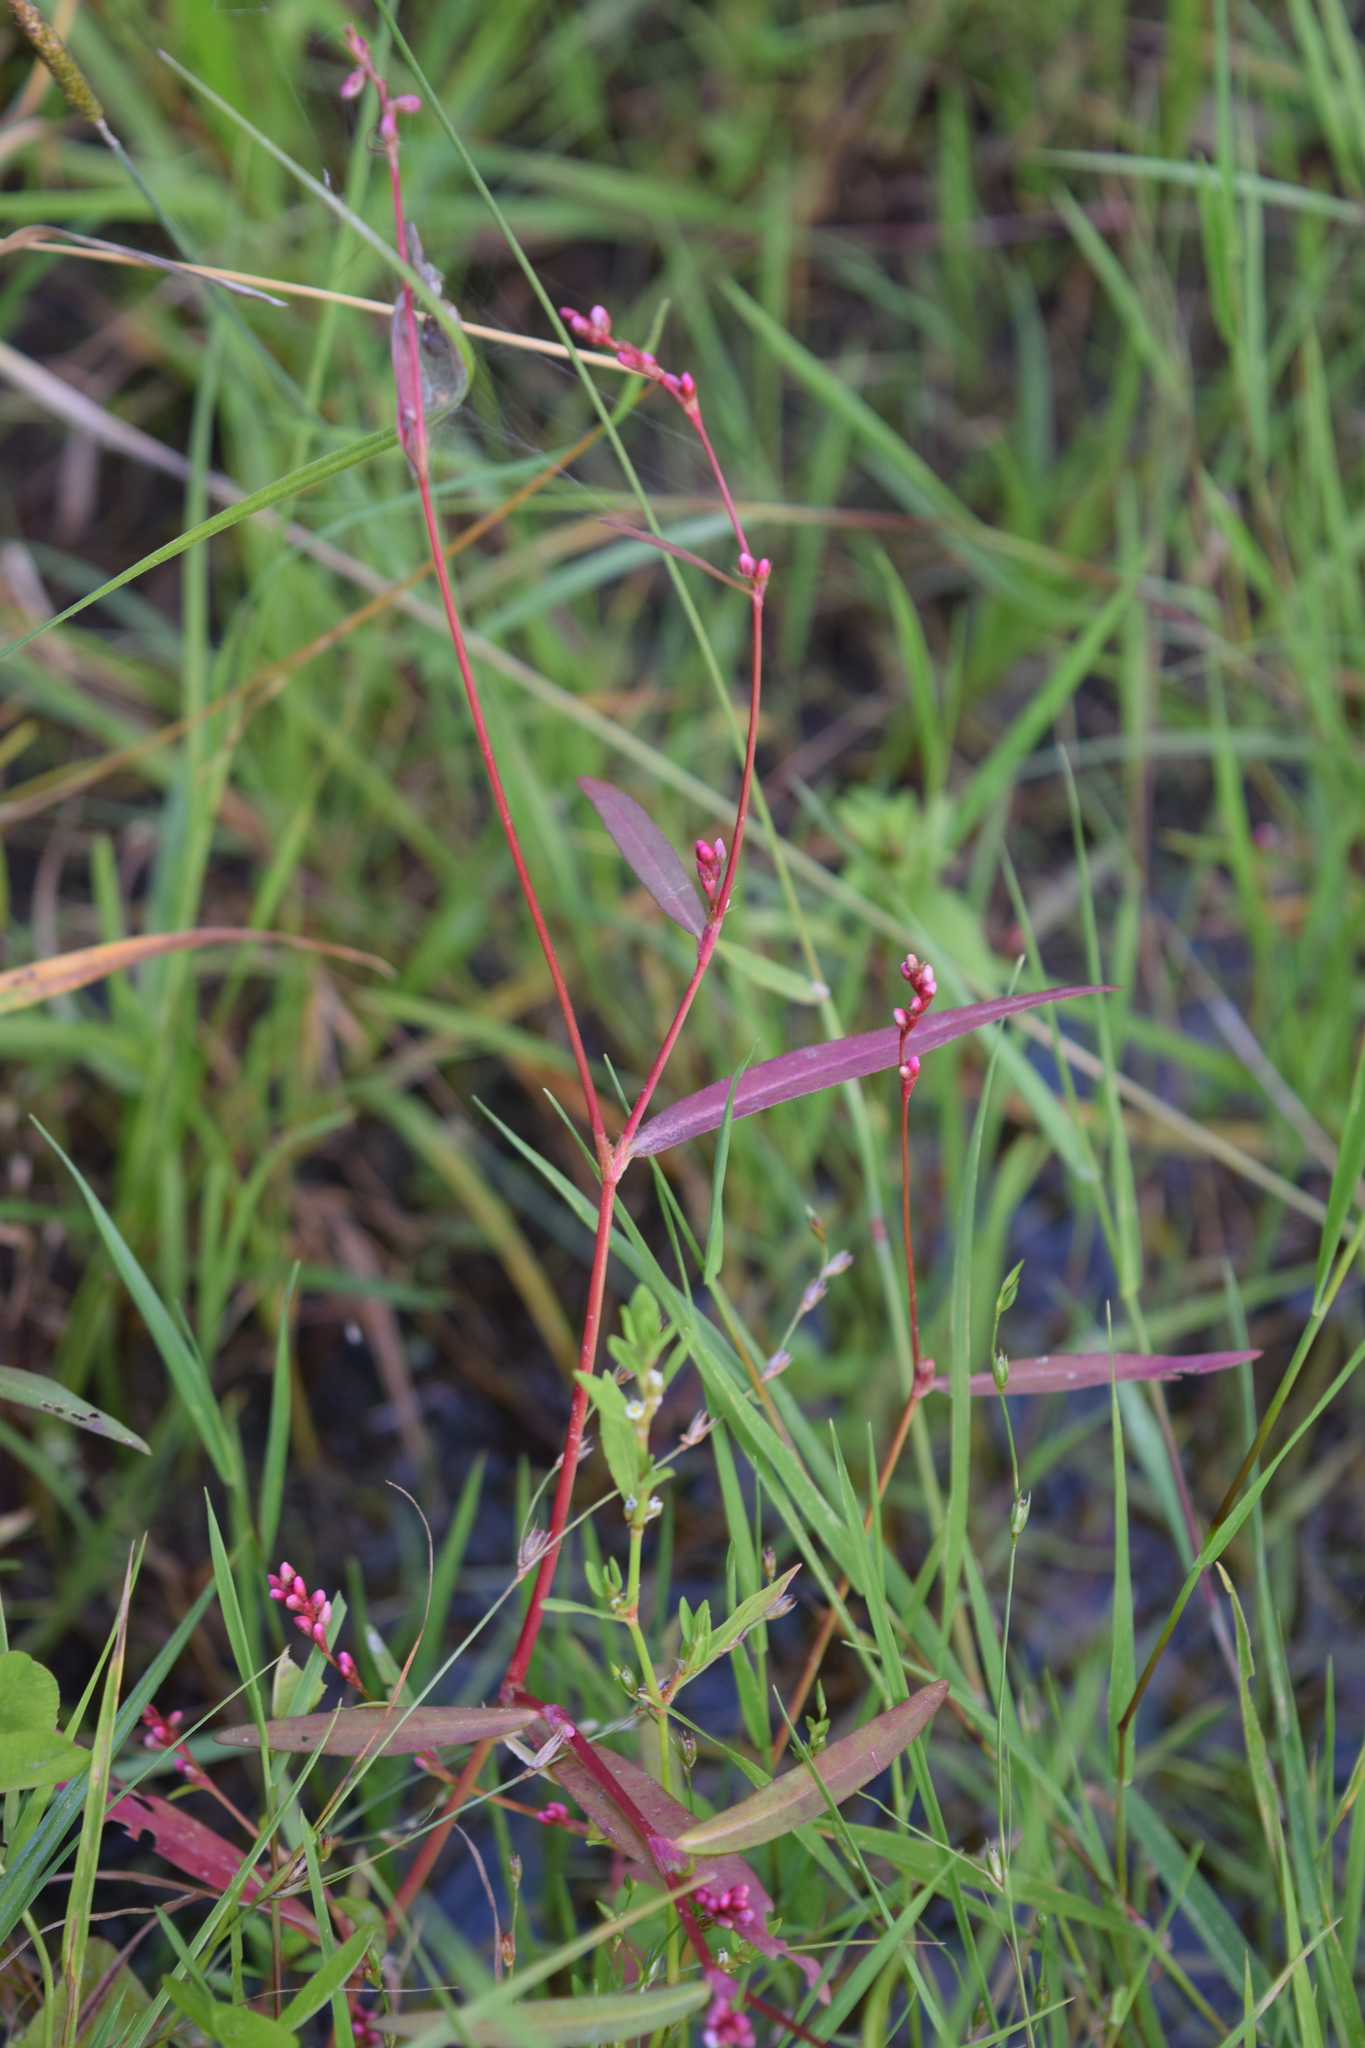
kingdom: Plantae
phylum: Tracheophyta
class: Magnoliopsida
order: Caryophyllales
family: Polygonaceae
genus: Persicaria
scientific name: Persicaria minor
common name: Small water-pepper
